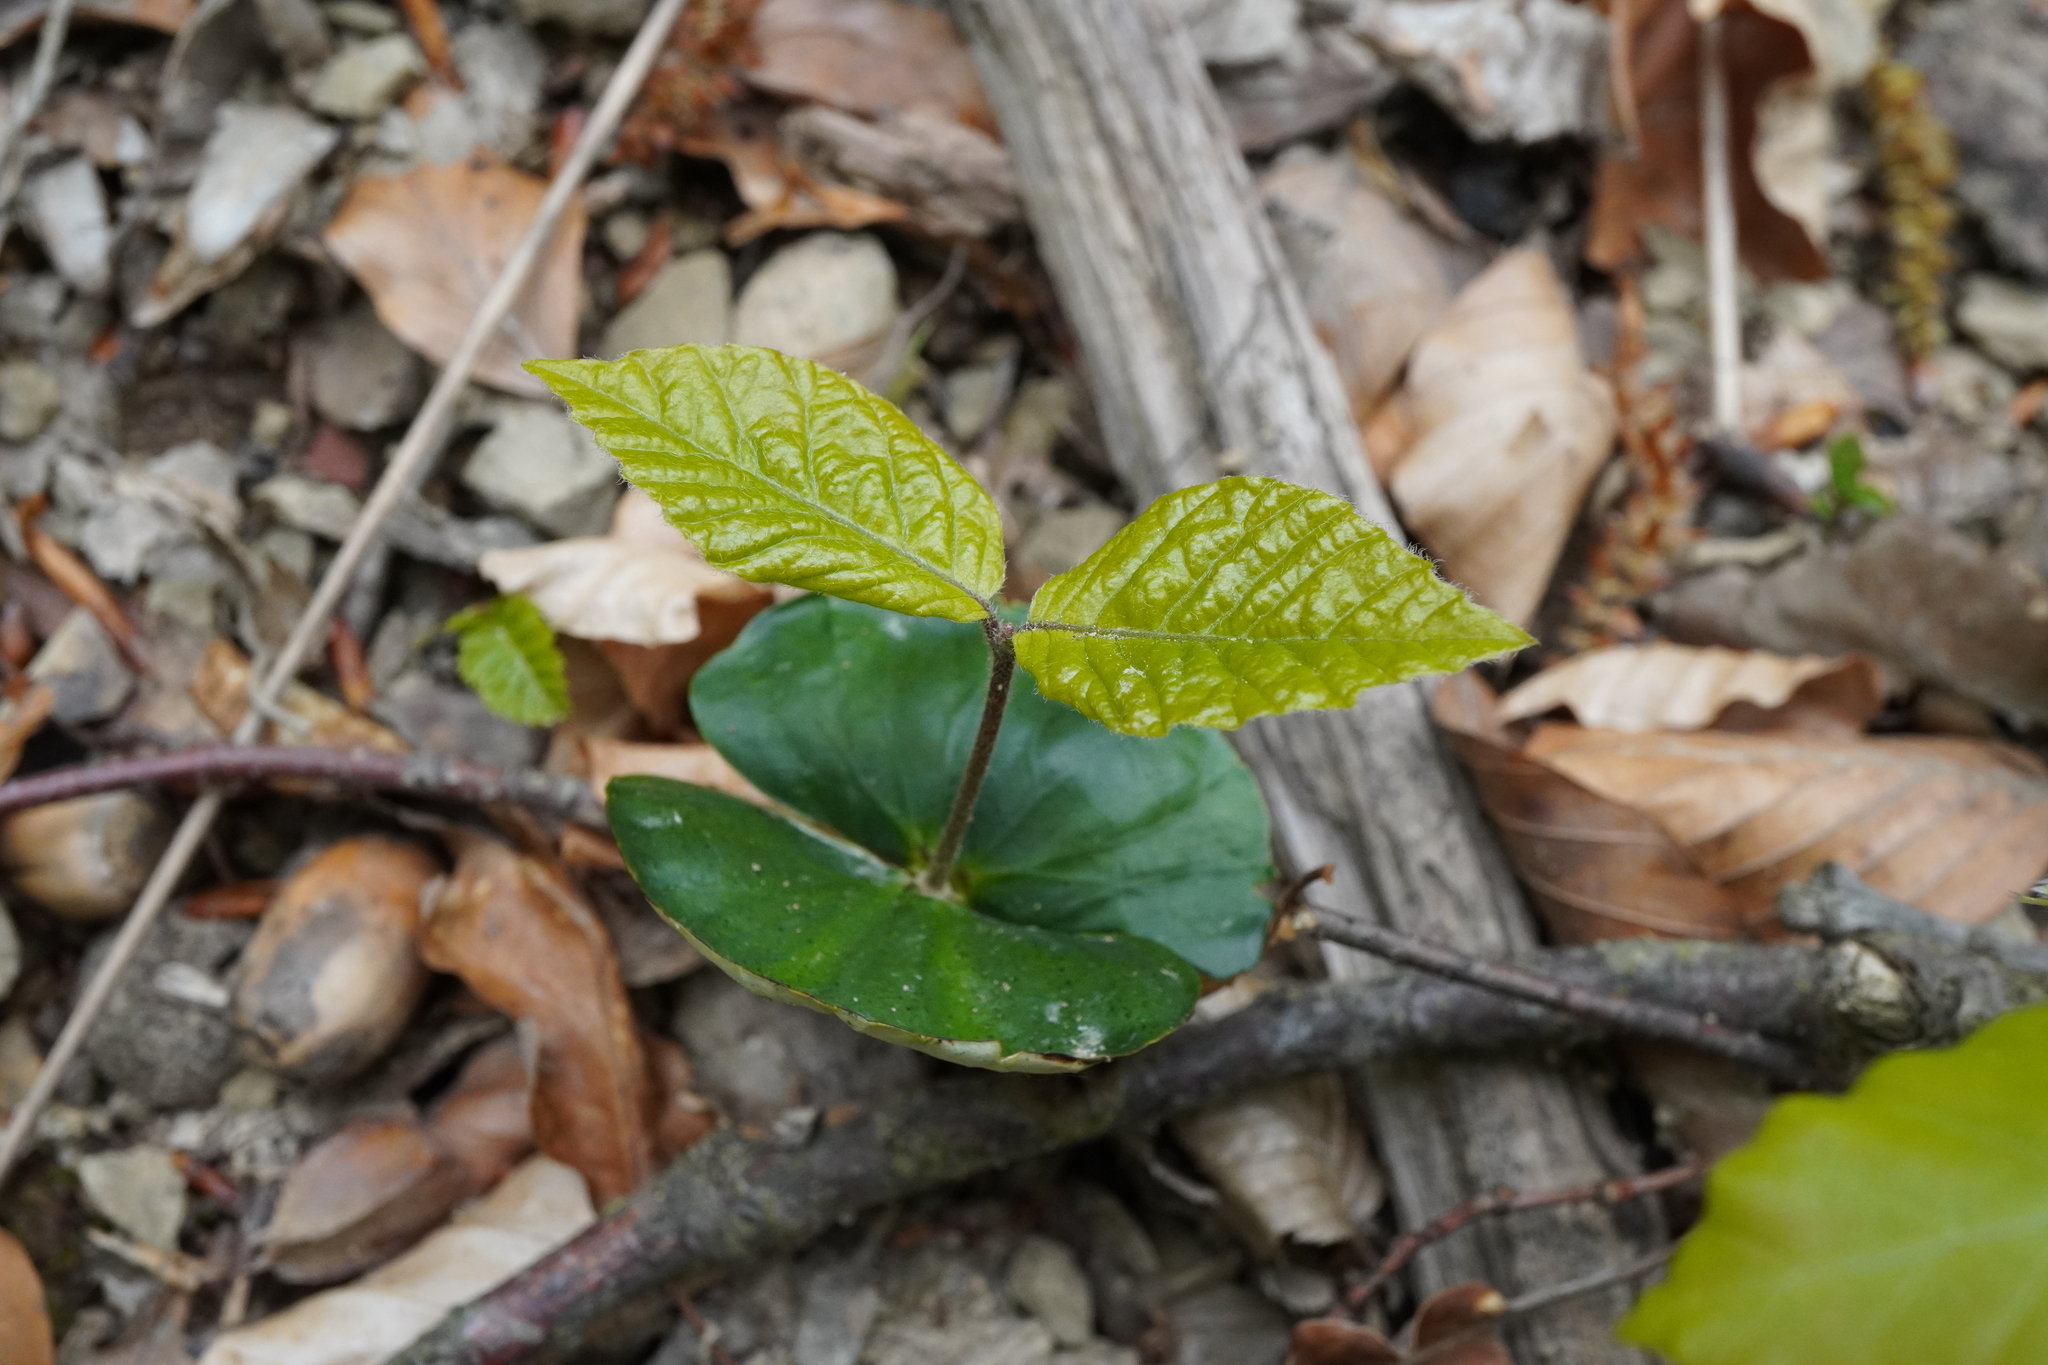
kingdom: Plantae
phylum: Tracheophyta
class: Magnoliopsida
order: Fagales
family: Fagaceae
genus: Fagus
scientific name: Fagus sylvatica
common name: Beech
